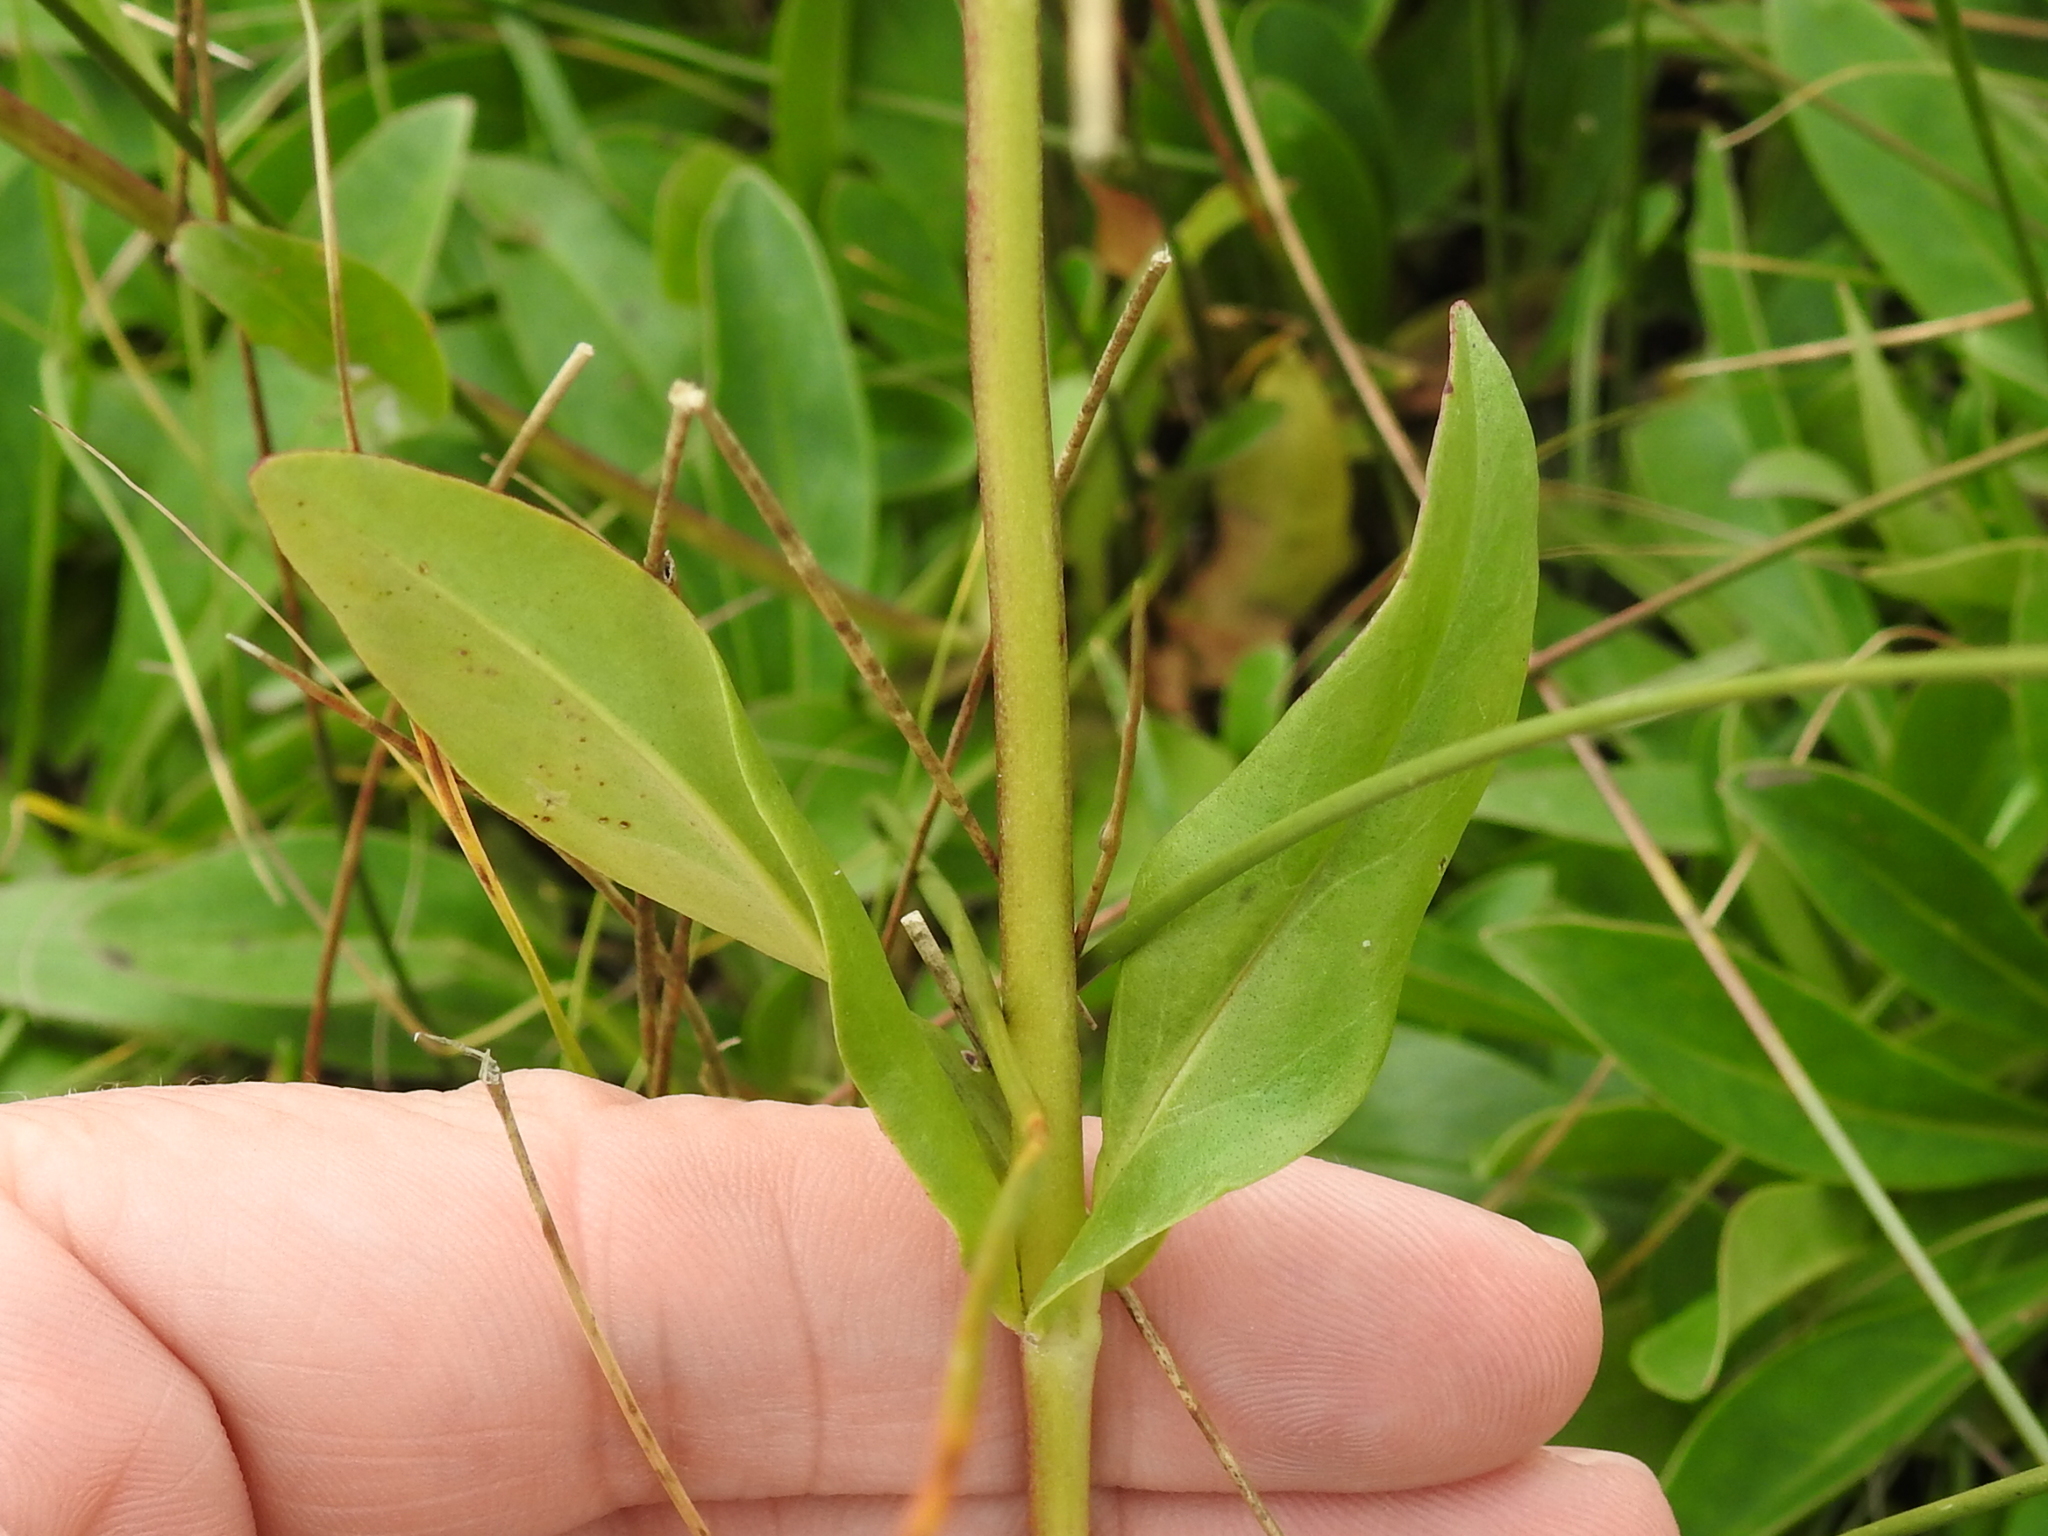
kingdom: Plantae
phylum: Tracheophyta
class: Magnoliopsida
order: Lamiales
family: Plantaginaceae
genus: Penstemon
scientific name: Penstemon rydbergii
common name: Rydberg's beardtongue
